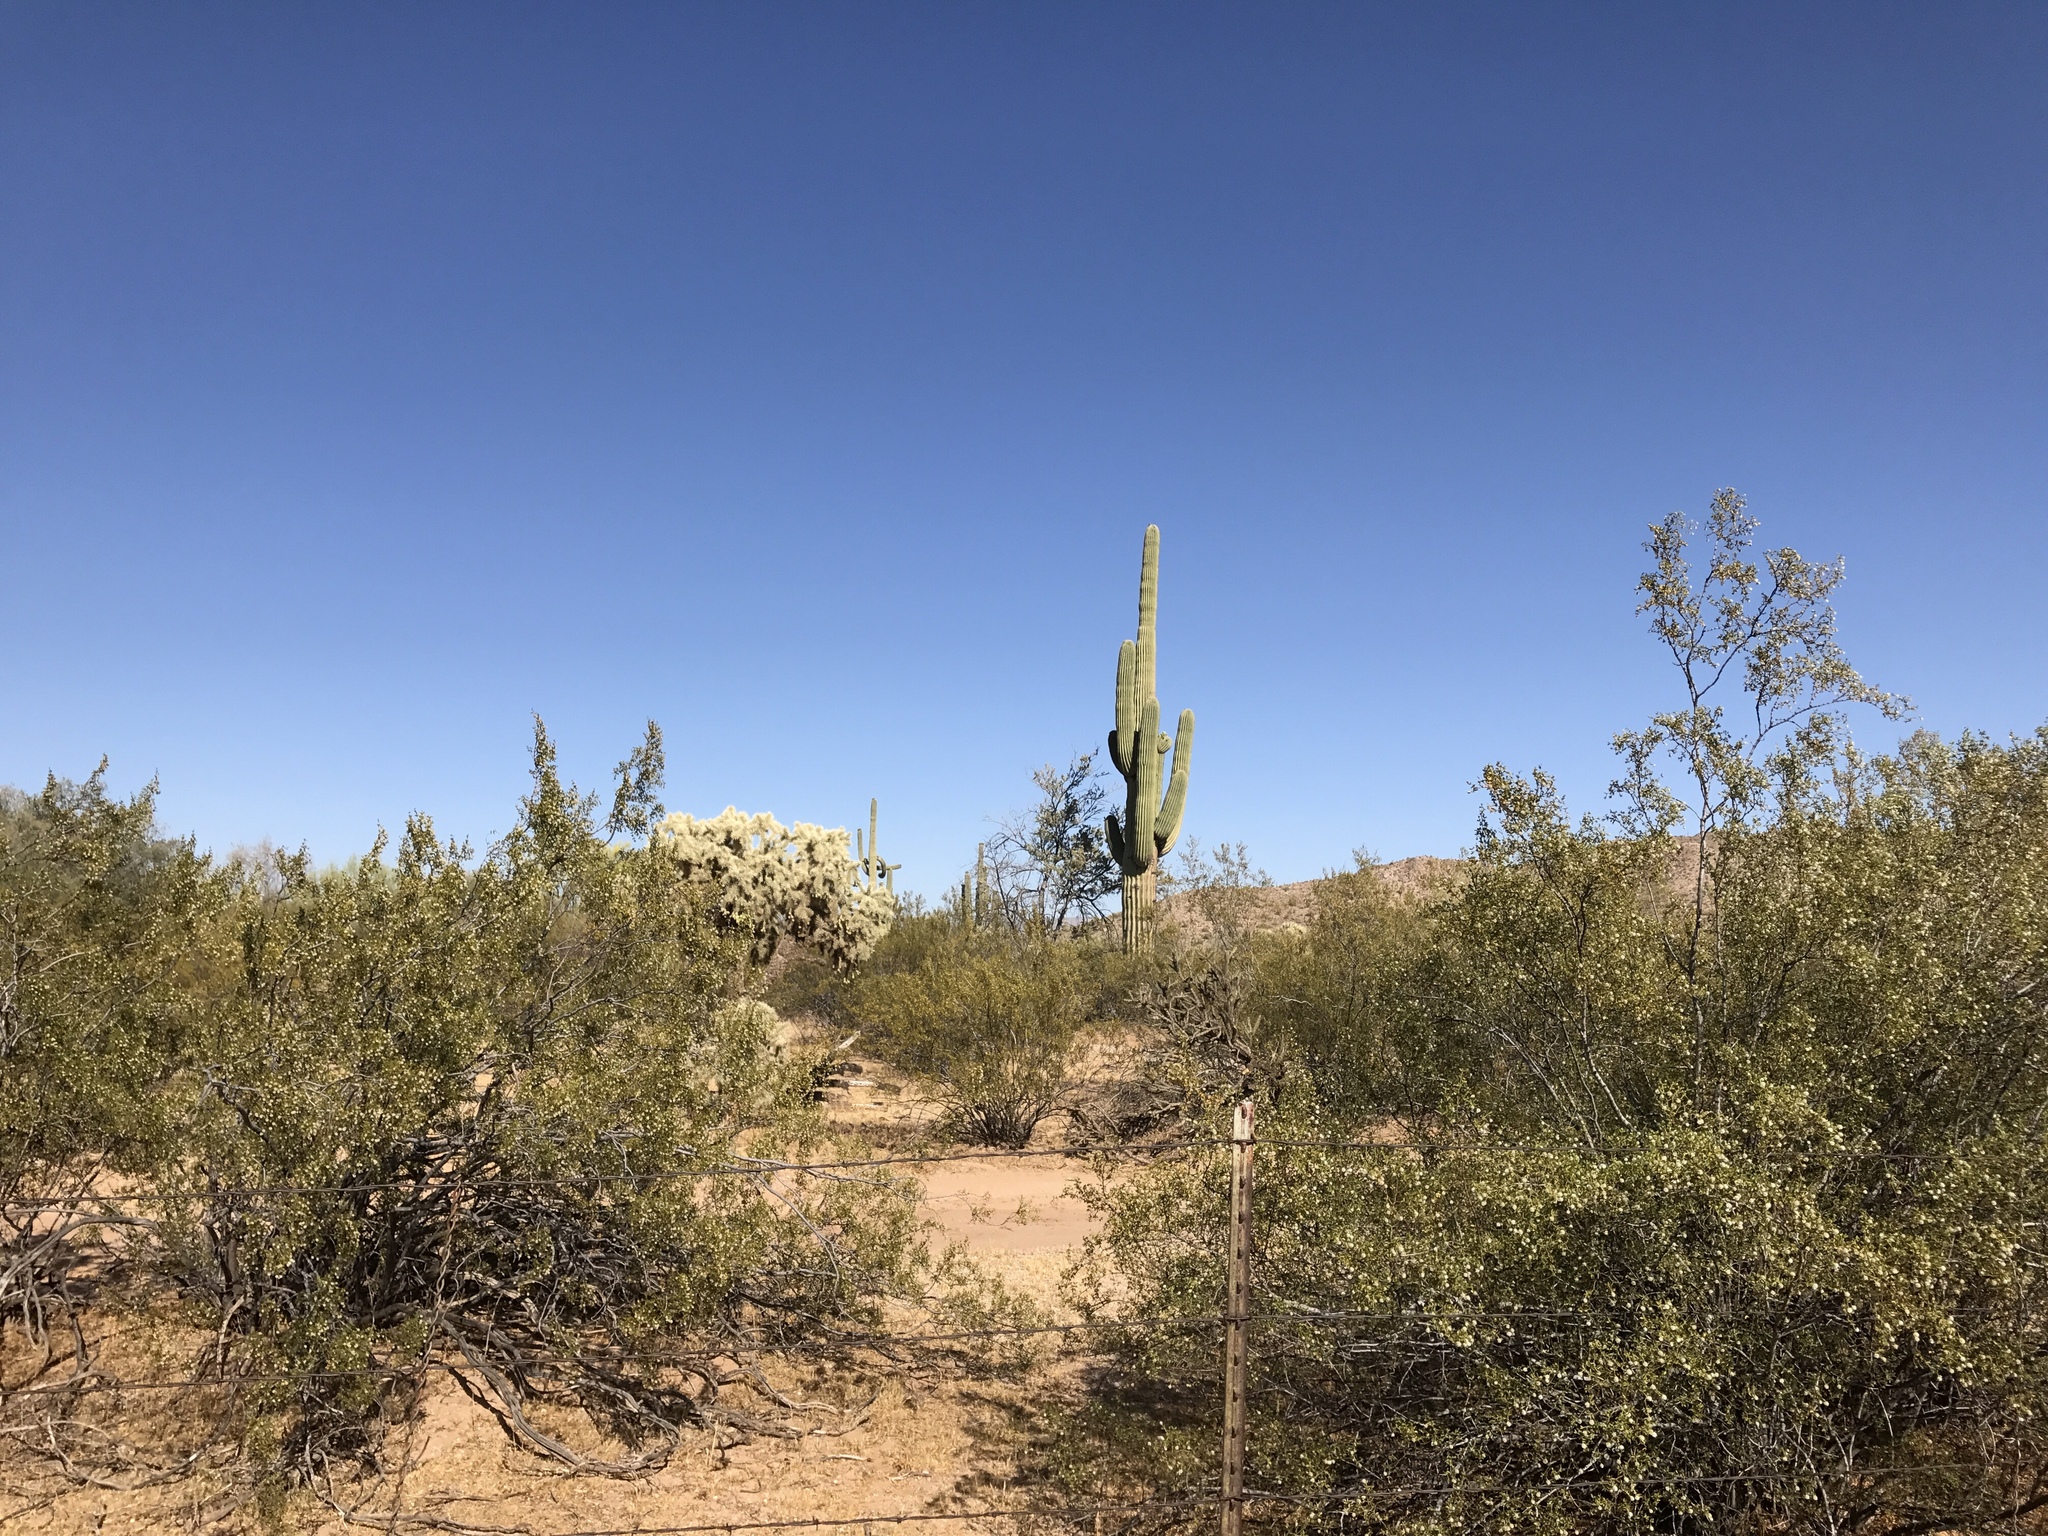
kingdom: Plantae
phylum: Tracheophyta
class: Magnoliopsida
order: Zygophyllales
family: Zygophyllaceae
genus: Larrea
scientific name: Larrea tridentata
